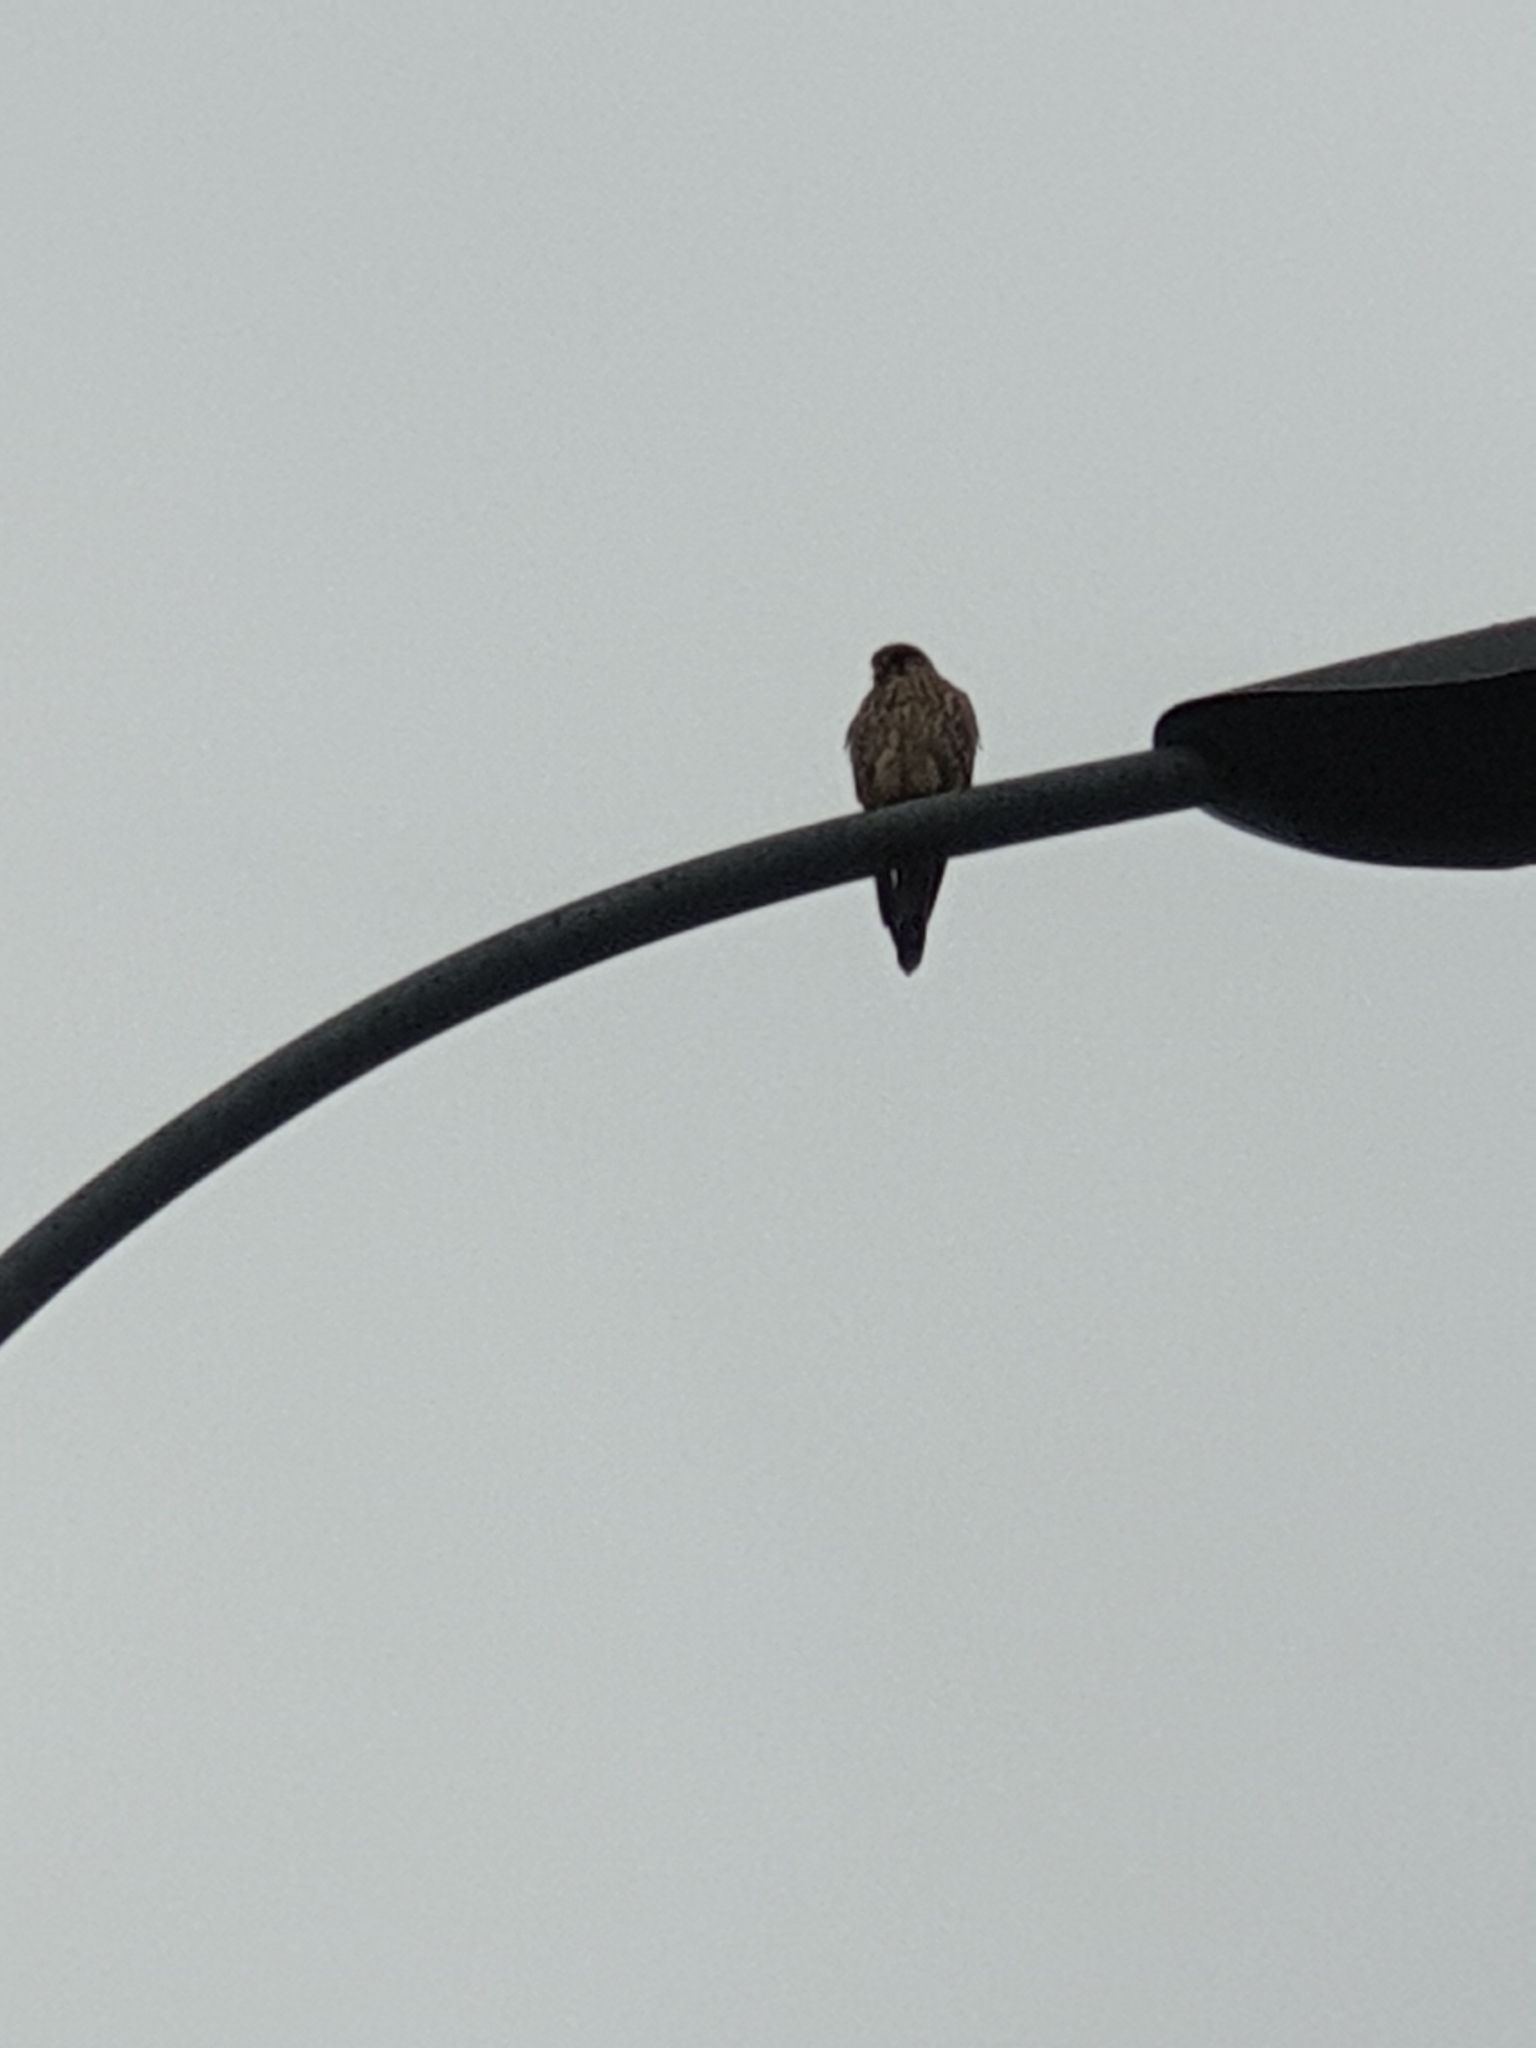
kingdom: Animalia
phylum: Chordata
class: Aves
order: Falconiformes
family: Falconidae
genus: Falco
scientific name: Falco tinnunculus
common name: Common kestrel
